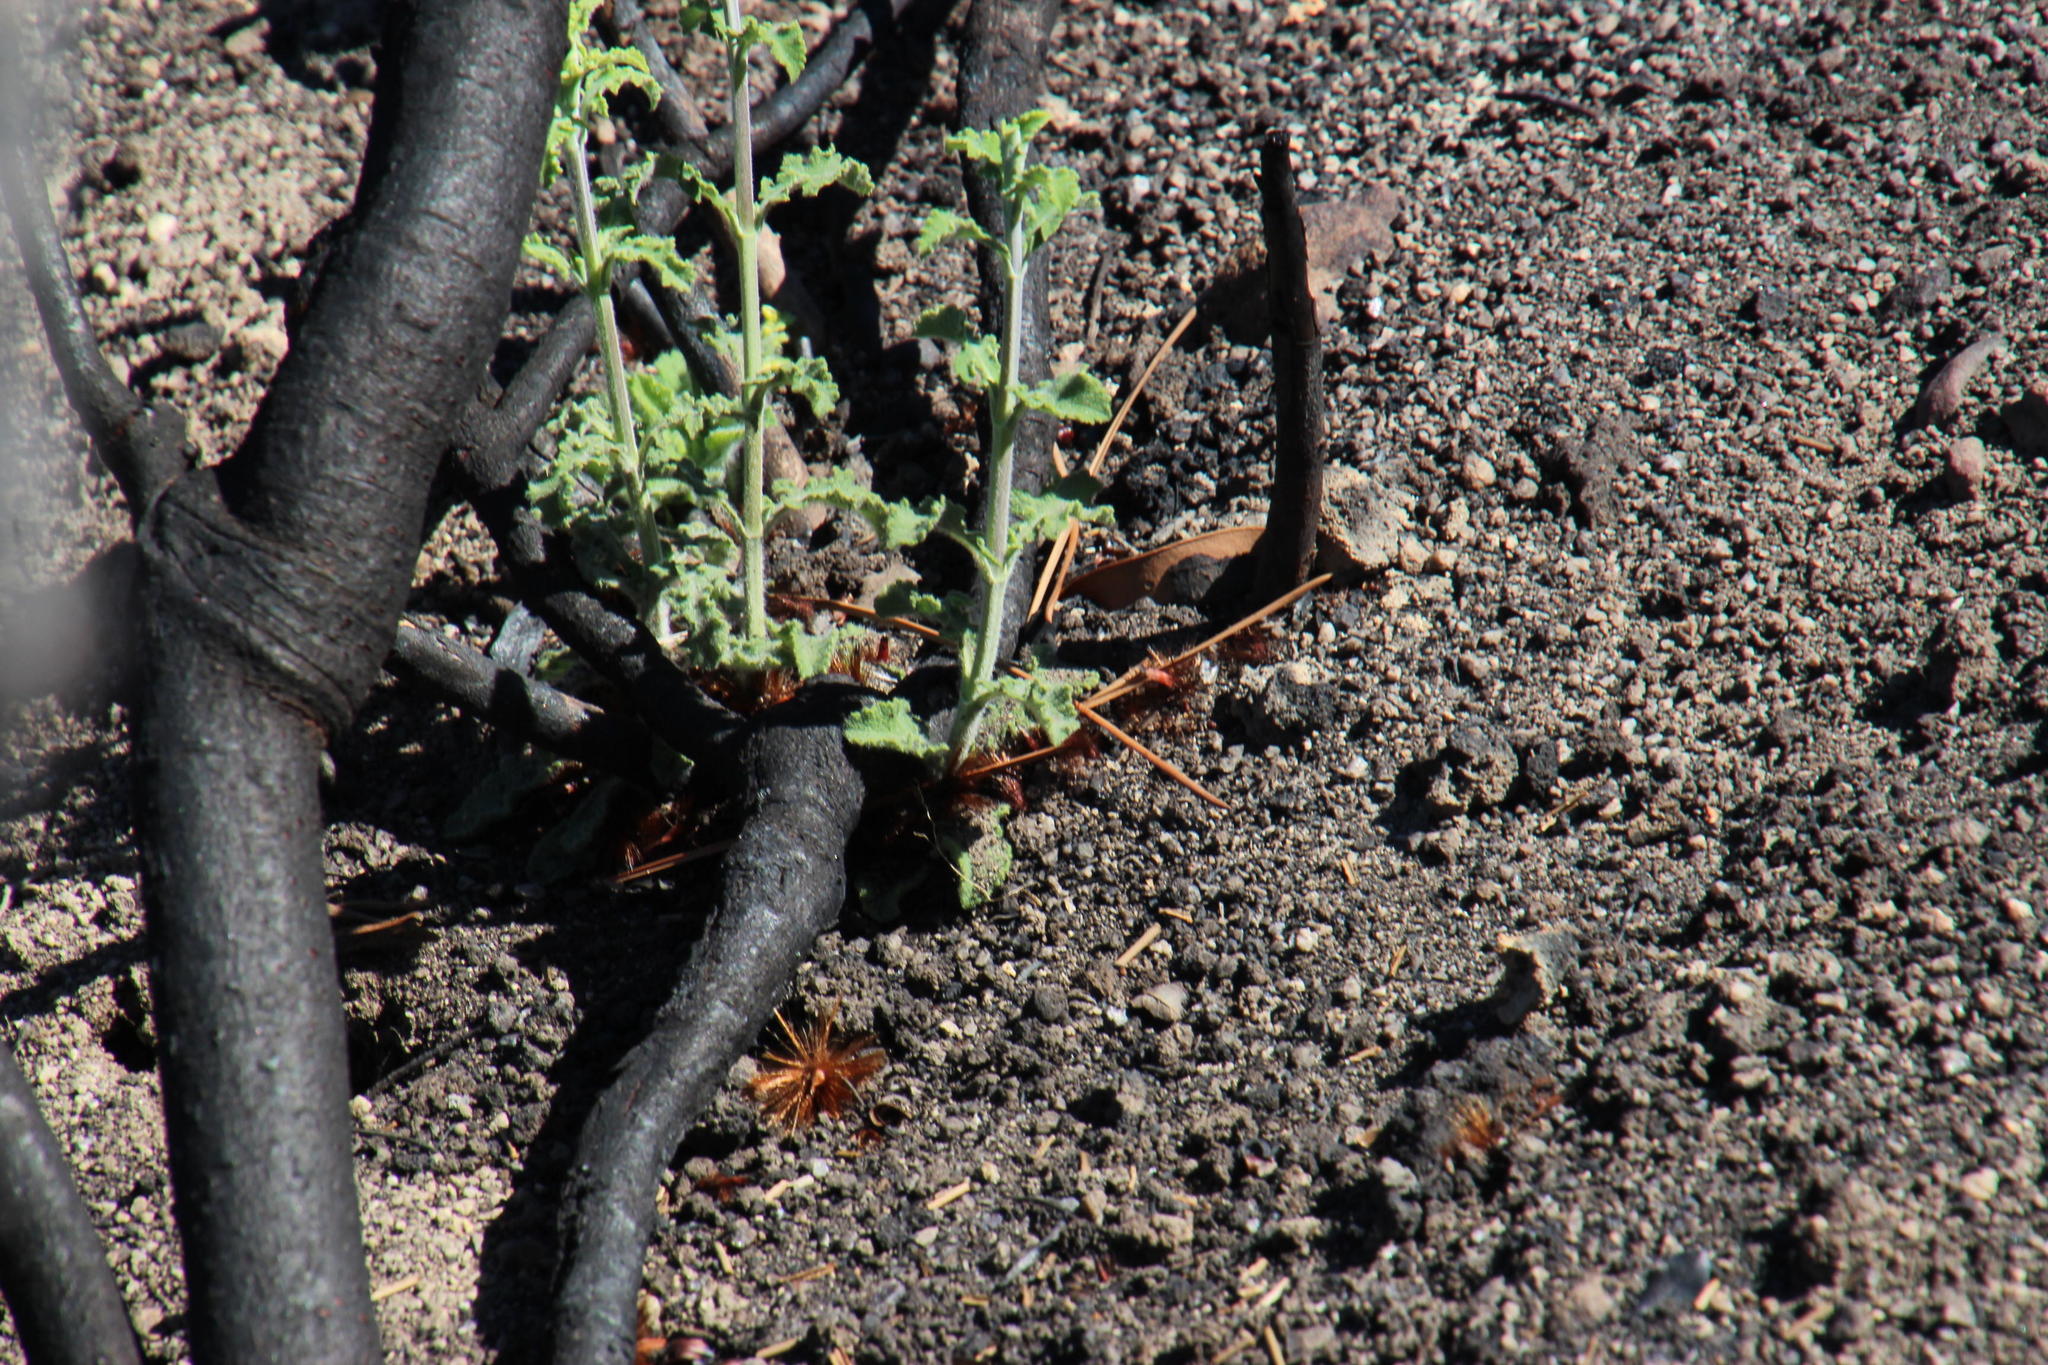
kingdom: Plantae
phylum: Tracheophyta
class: Magnoliopsida
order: Lamiales
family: Lamiaceae
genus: Salvia
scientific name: Salvia africana
